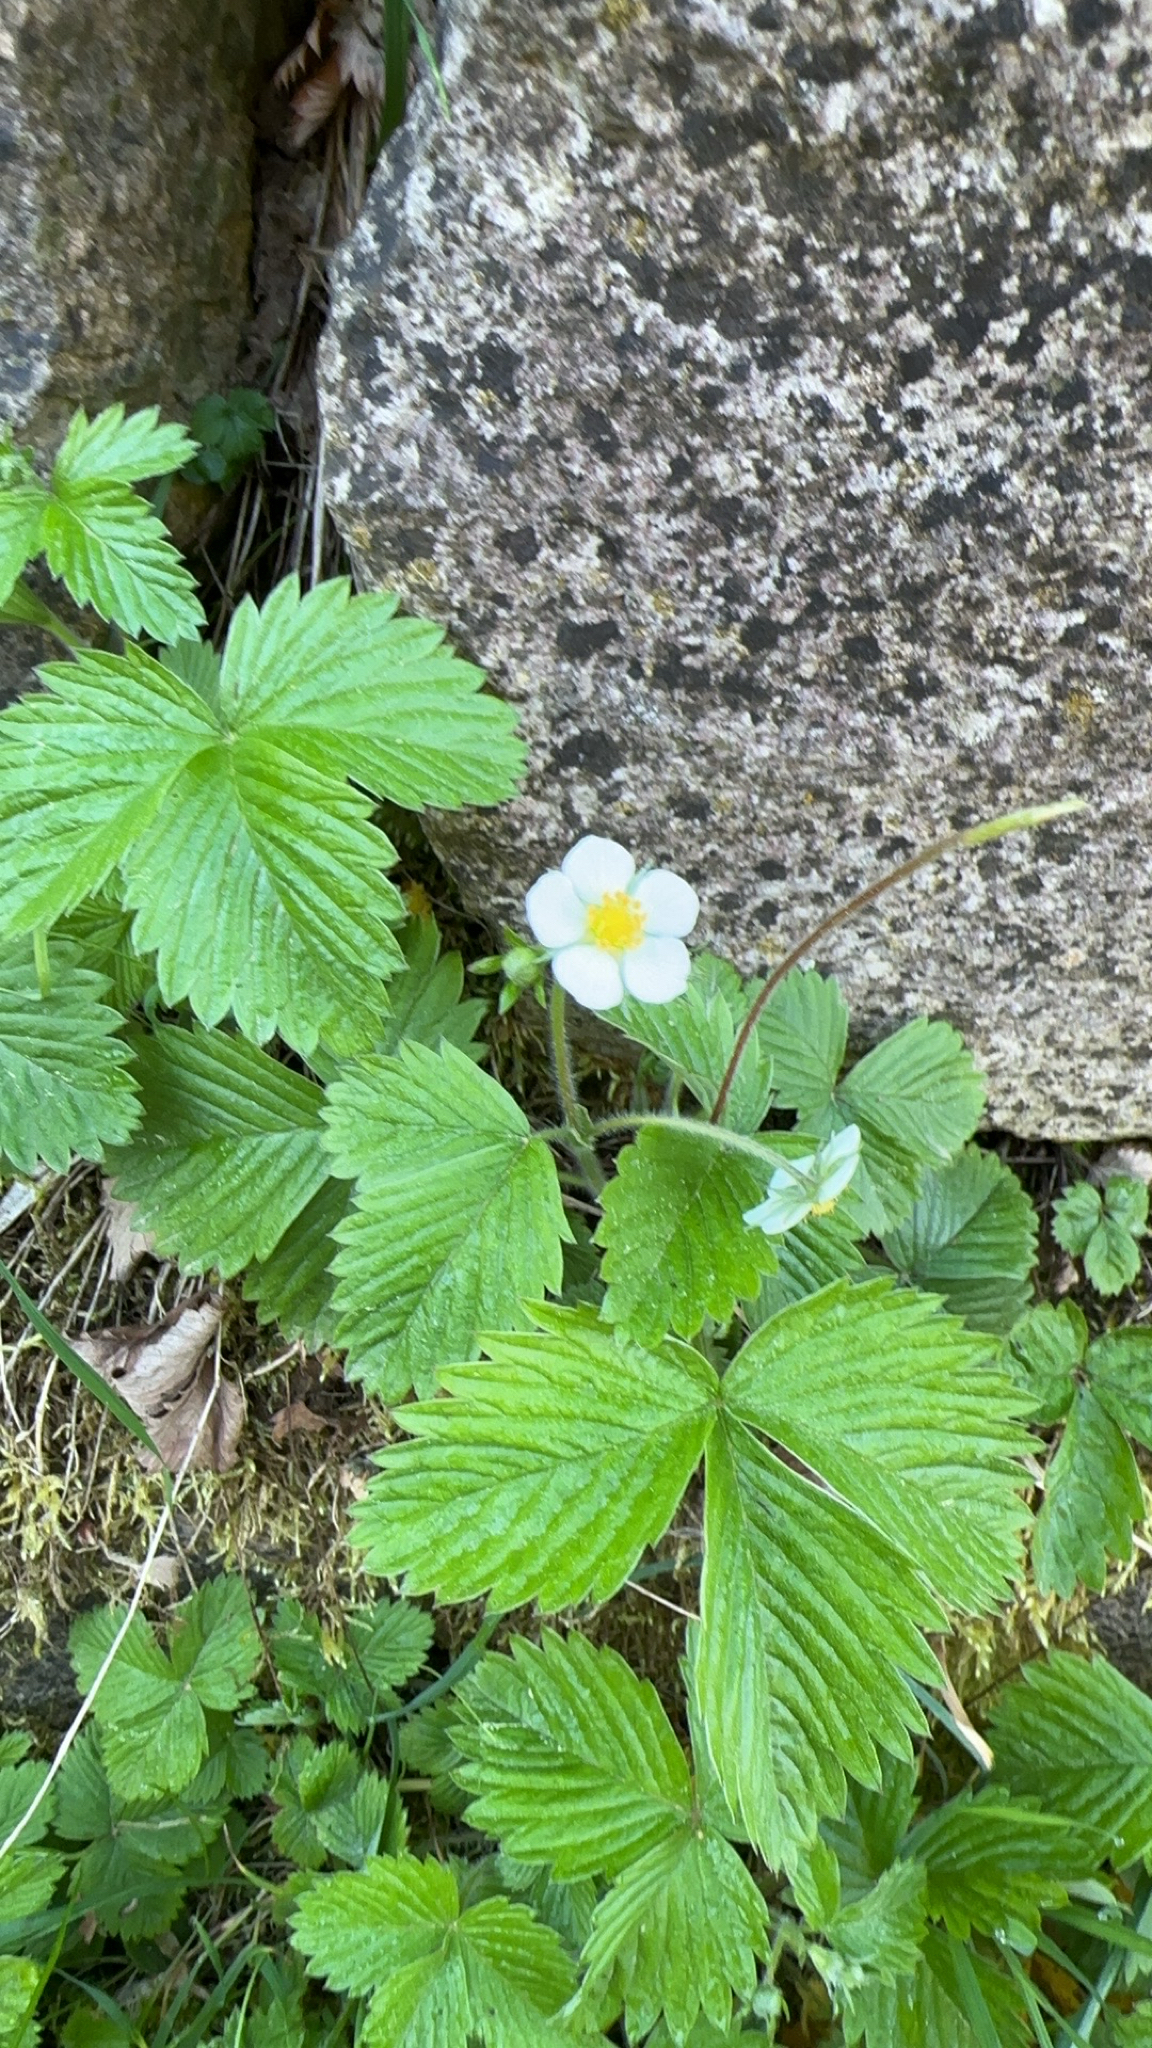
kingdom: Plantae
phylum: Tracheophyta
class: Magnoliopsida
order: Rosales
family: Rosaceae
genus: Fragaria
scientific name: Fragaria vesca
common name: Wild strawberry
